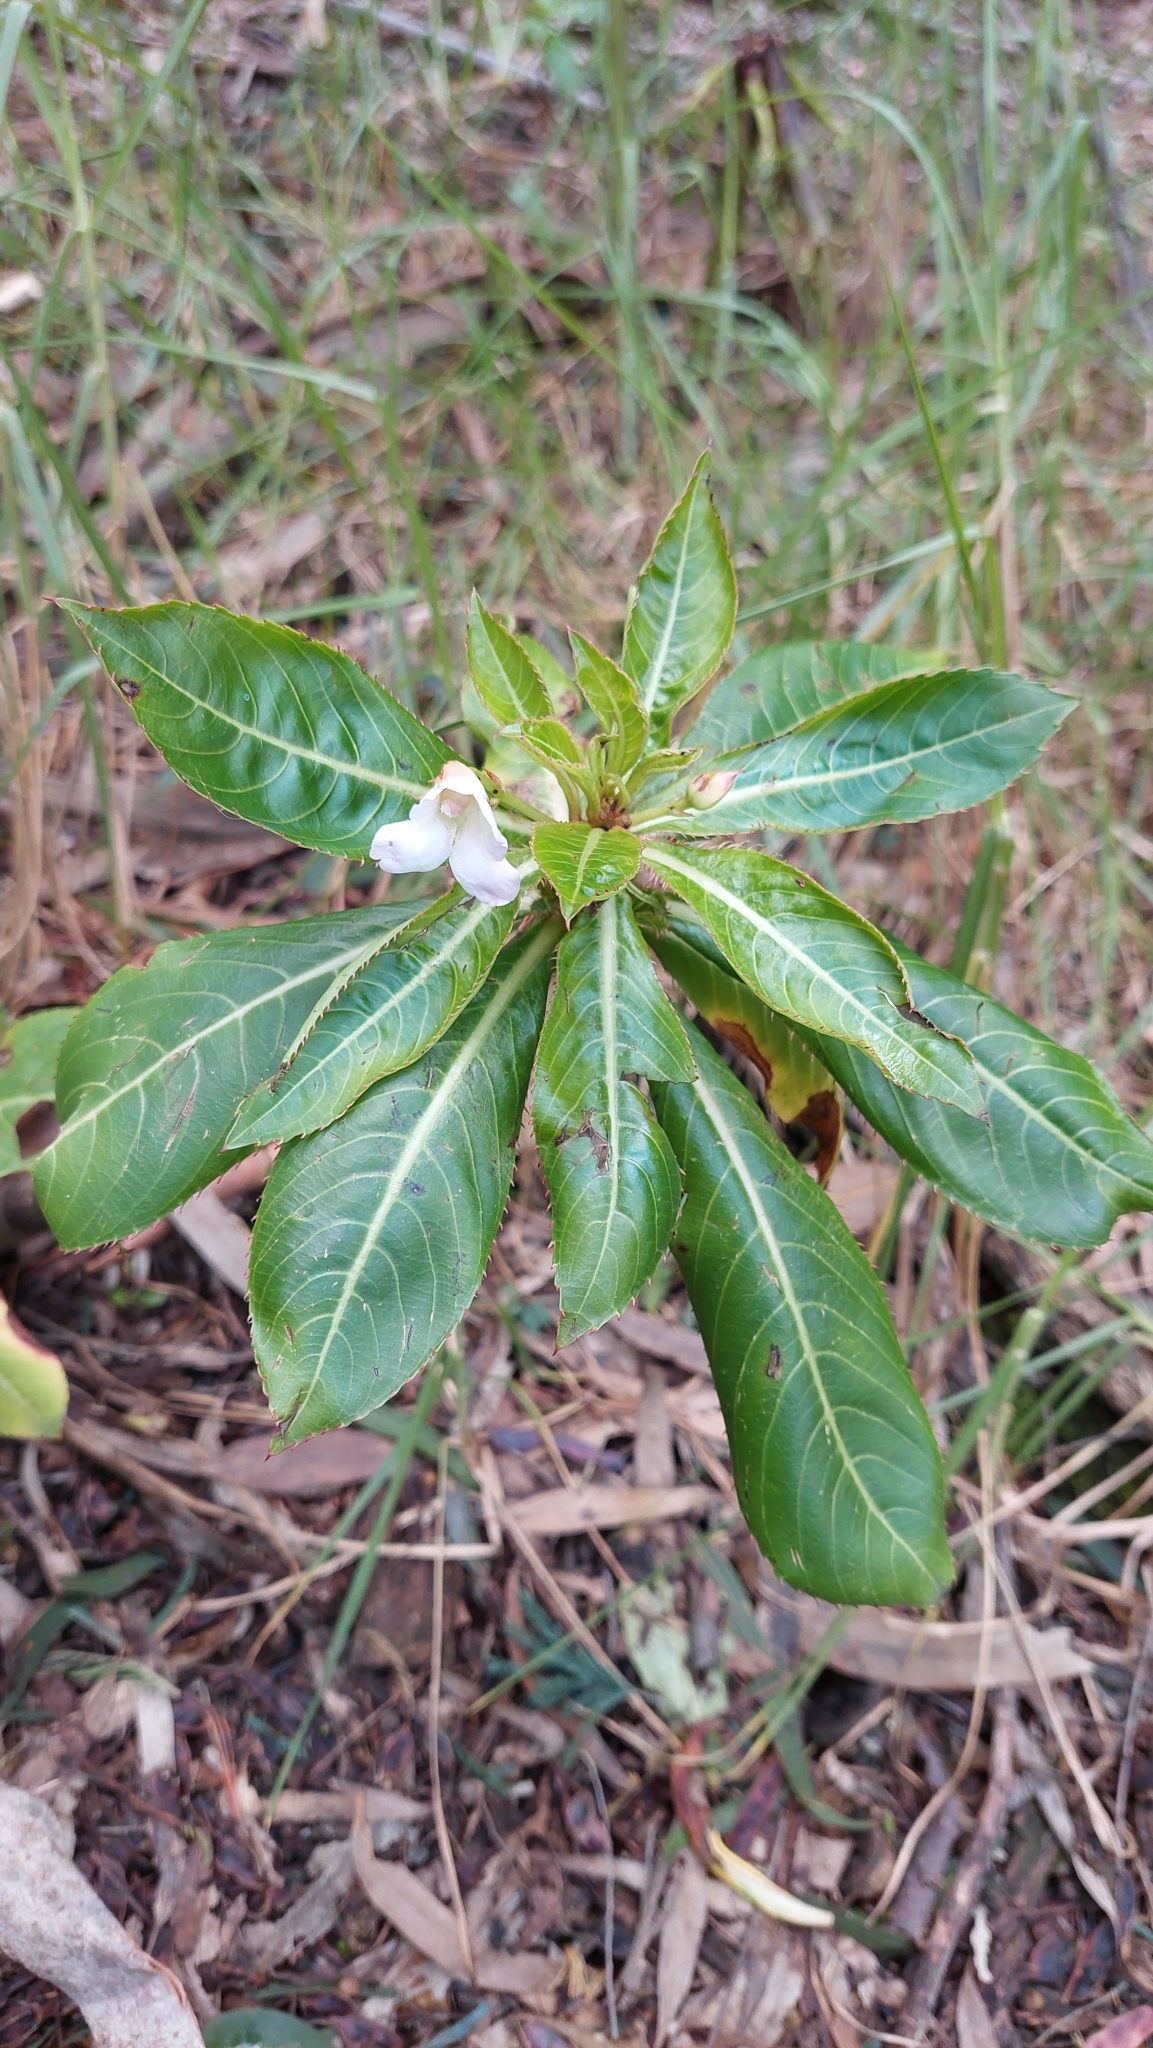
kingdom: Plantae
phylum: Tracheophyta
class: Magnoliopsida
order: Ericales
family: Balsaminaceae
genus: Impatiens
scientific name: Impatiens sodenii
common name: Oliver's touch-me-not
